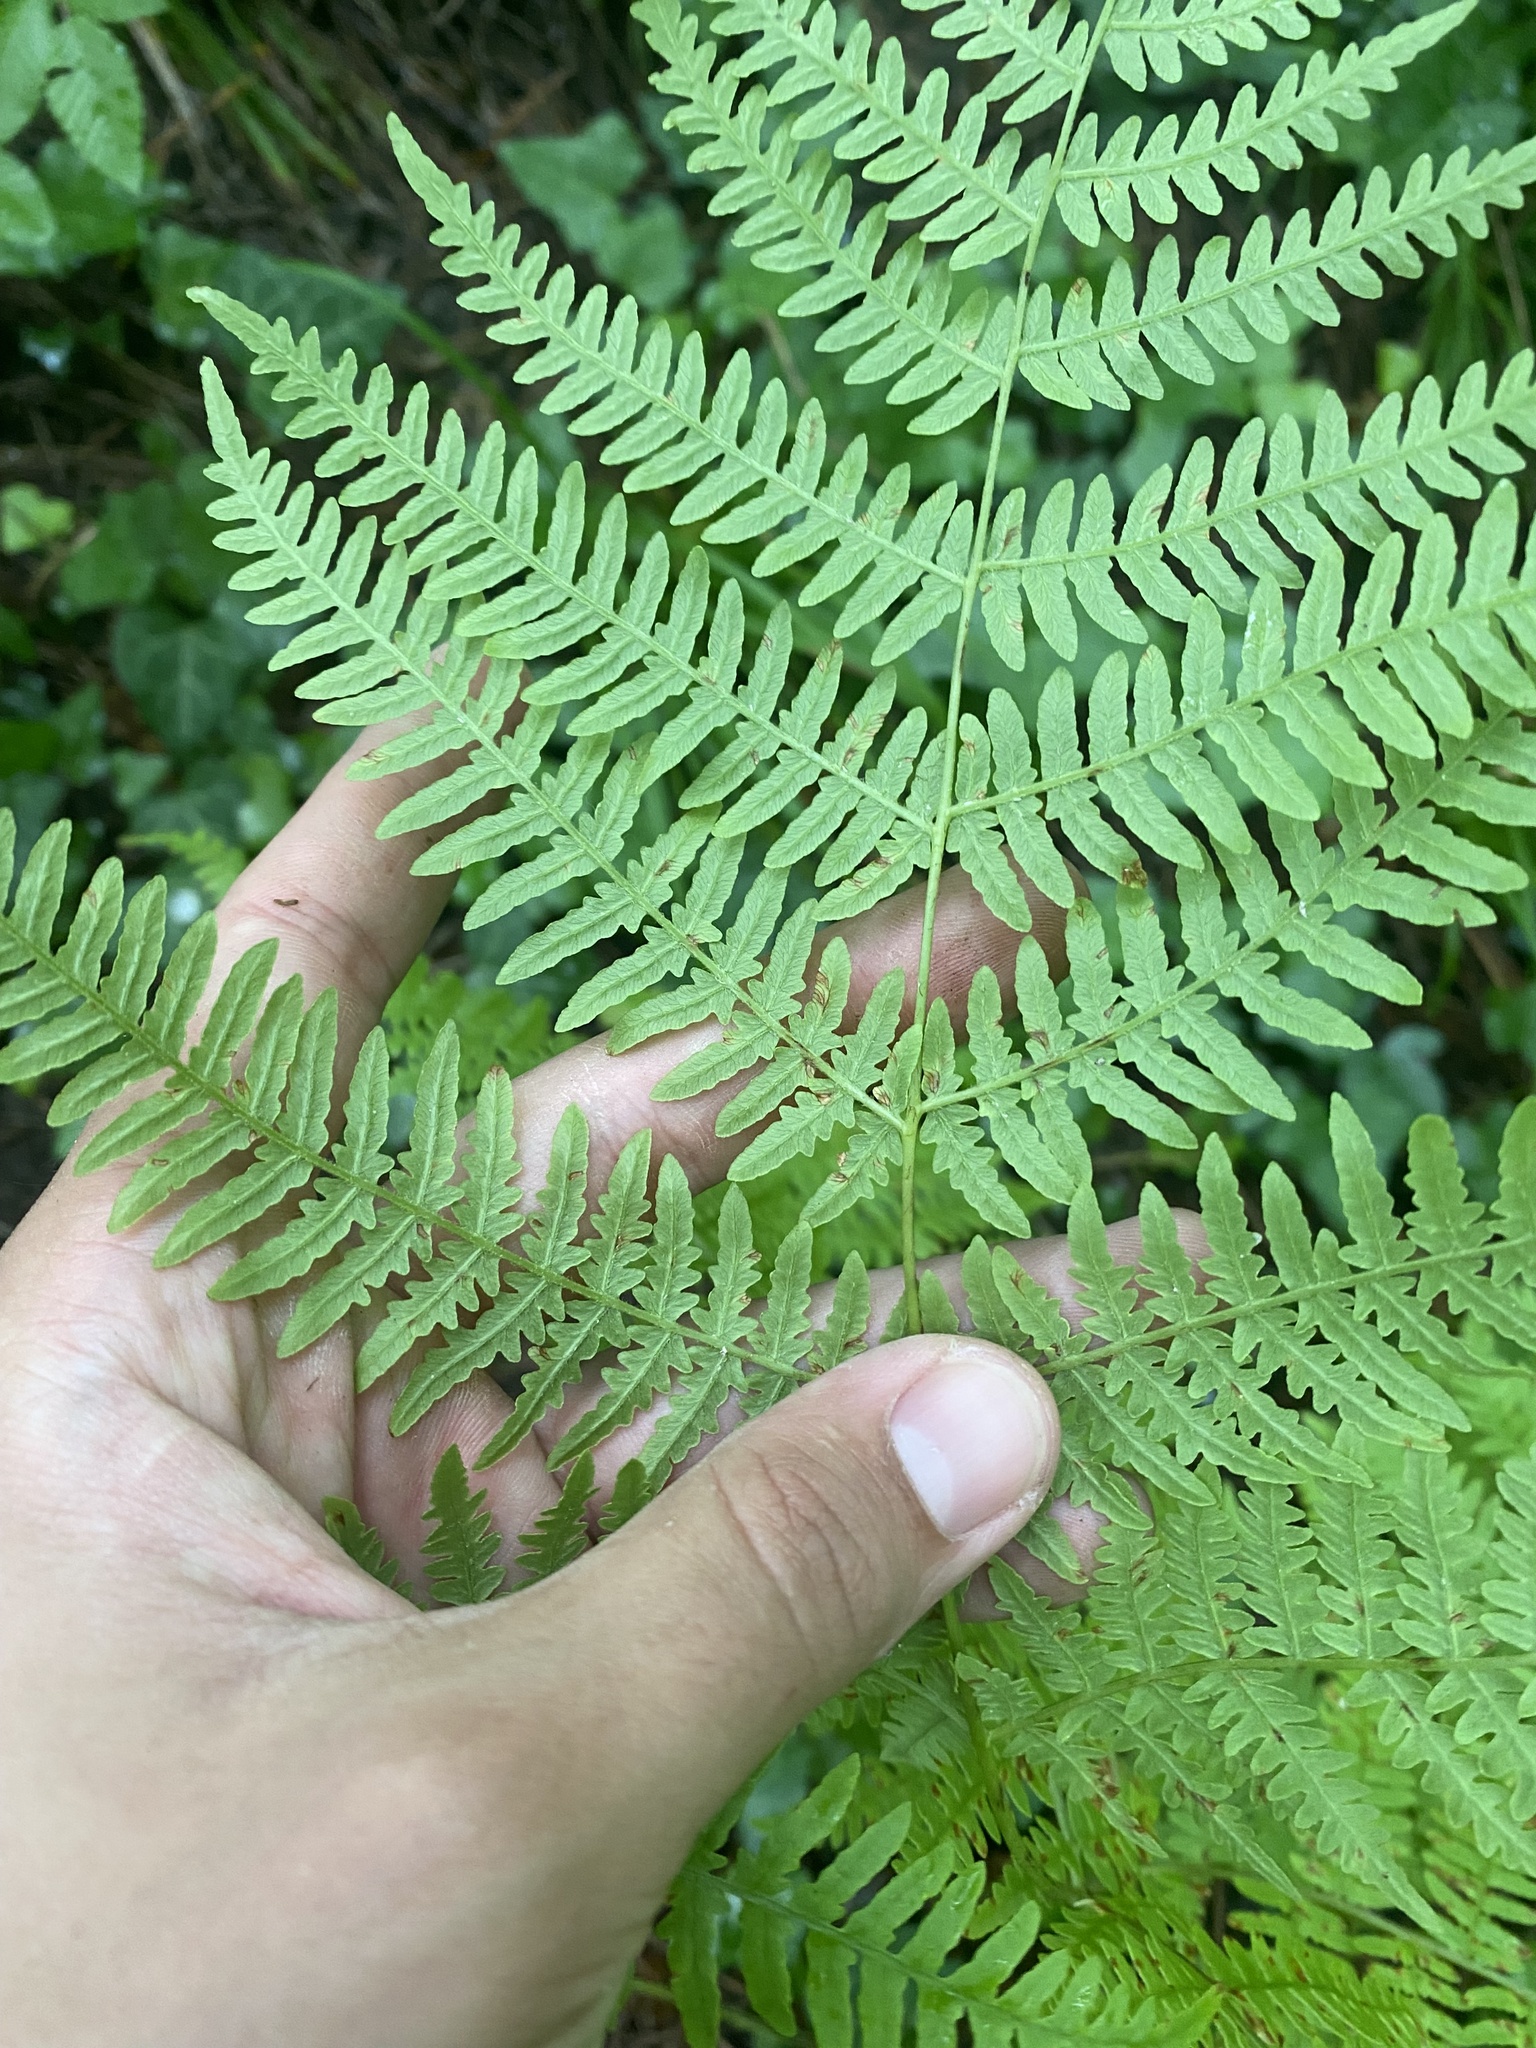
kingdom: Plantae
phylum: Tracheophyta
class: Polypodiopsida
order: Polypodiales
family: Dennstaedtiaceae
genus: Pteridium
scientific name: Pteridium tauricum
